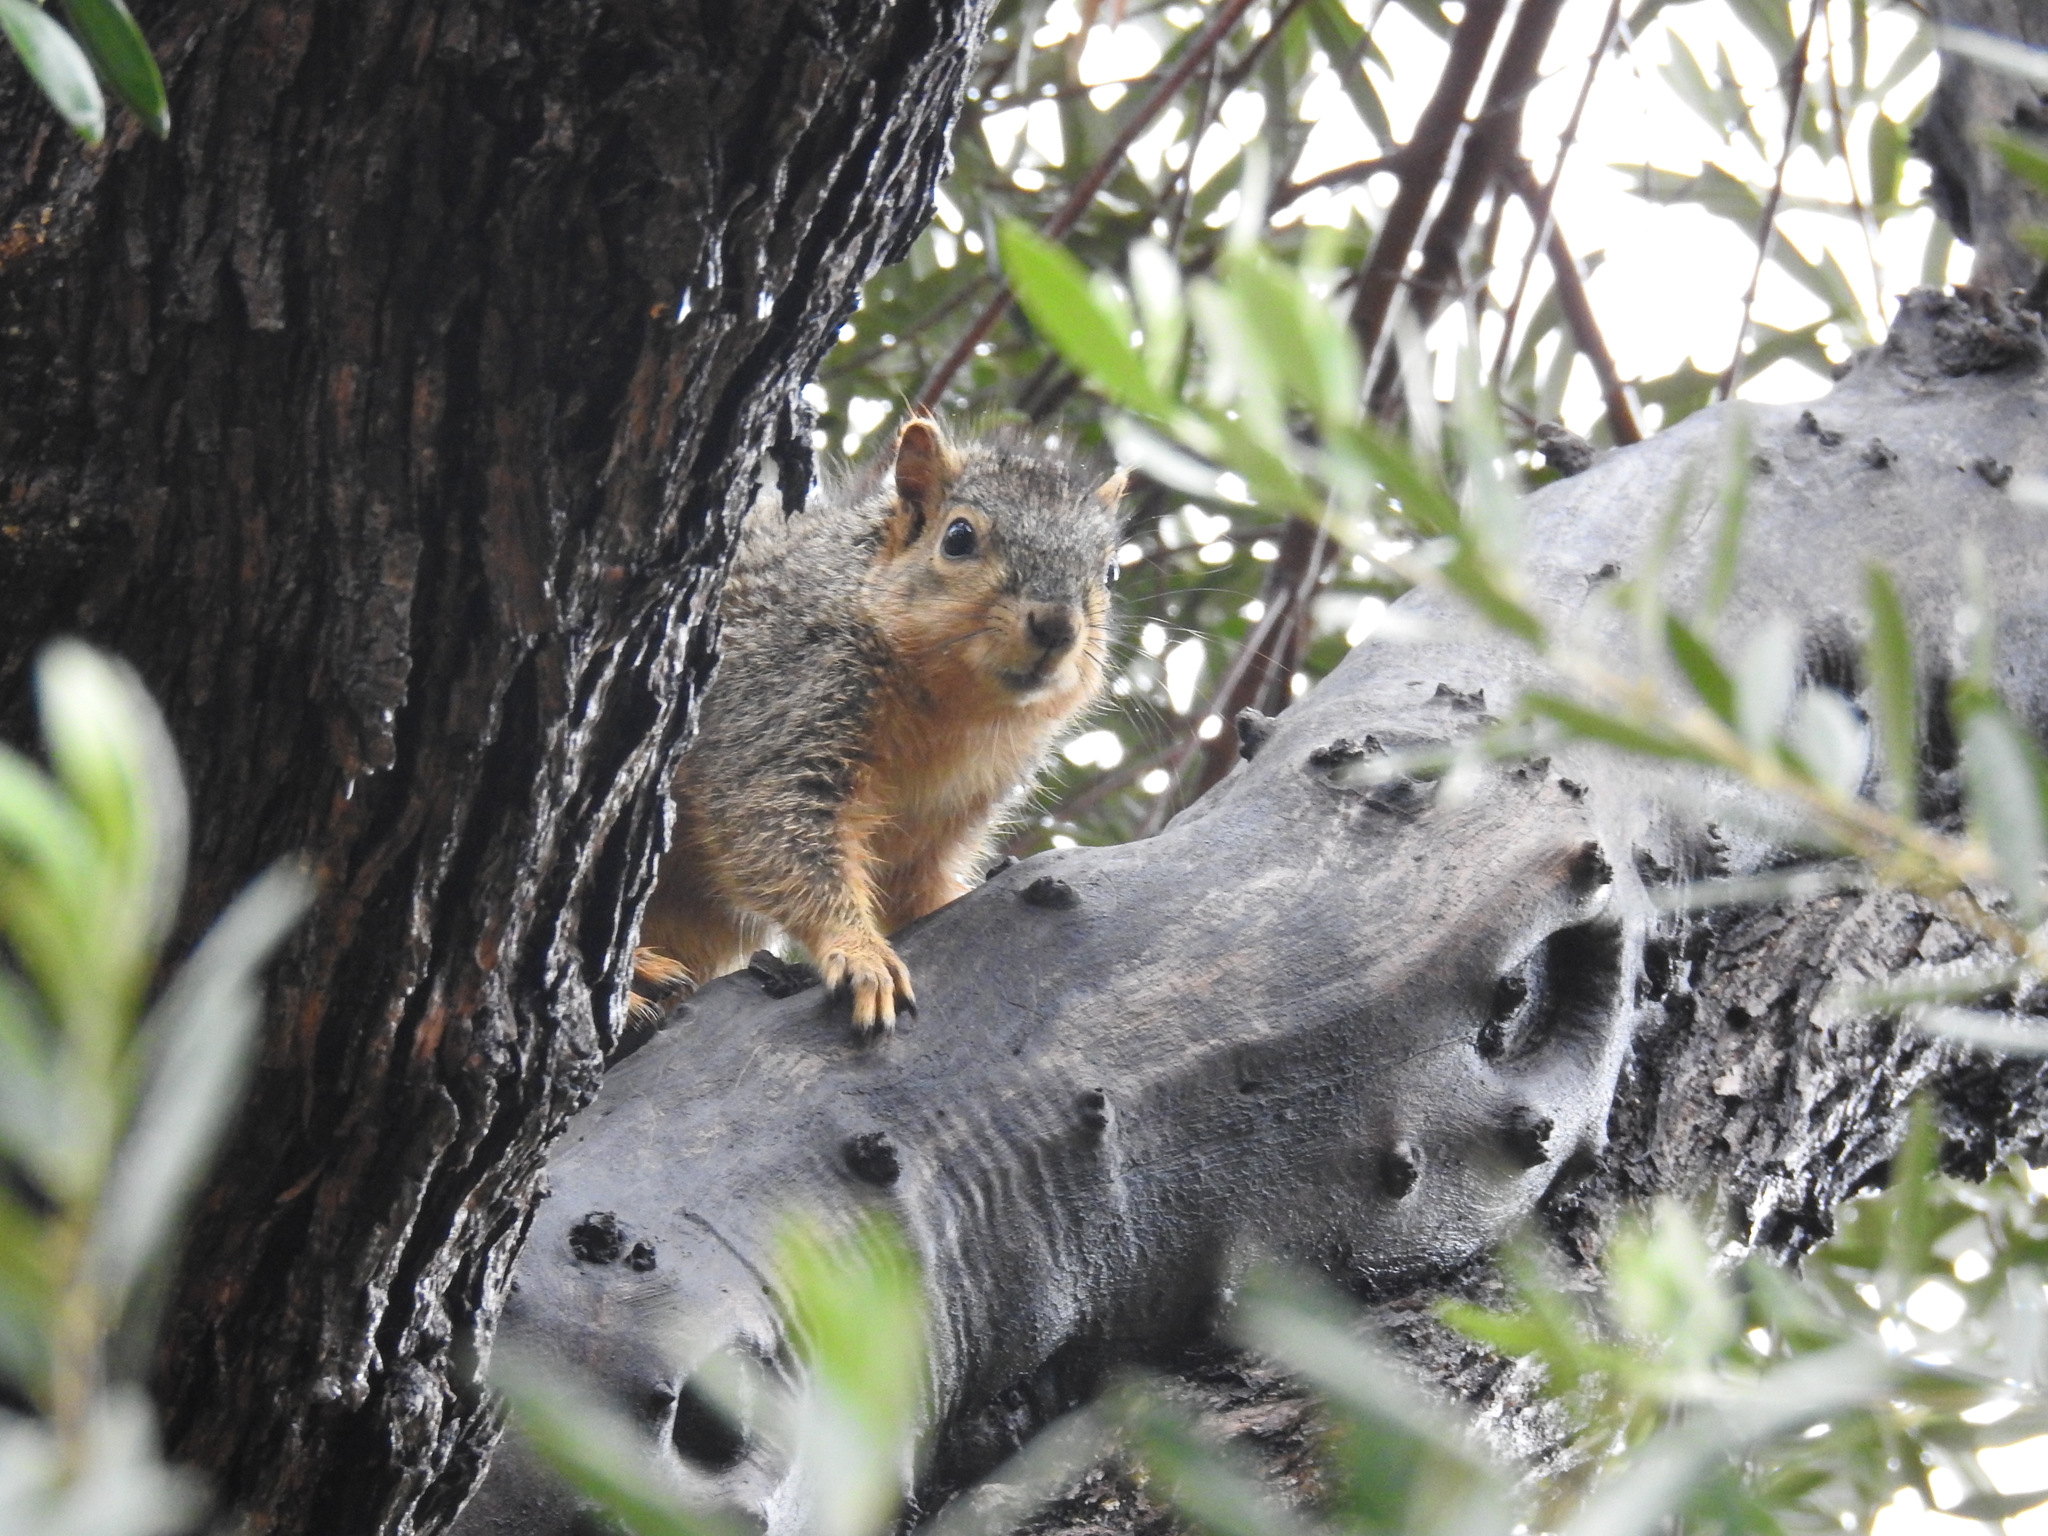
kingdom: Animalia
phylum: Chordata
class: Mammalia
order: Rodentia
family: Sciuridae
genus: Sciurus
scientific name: Sciurus niger
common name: Fox squirrel
